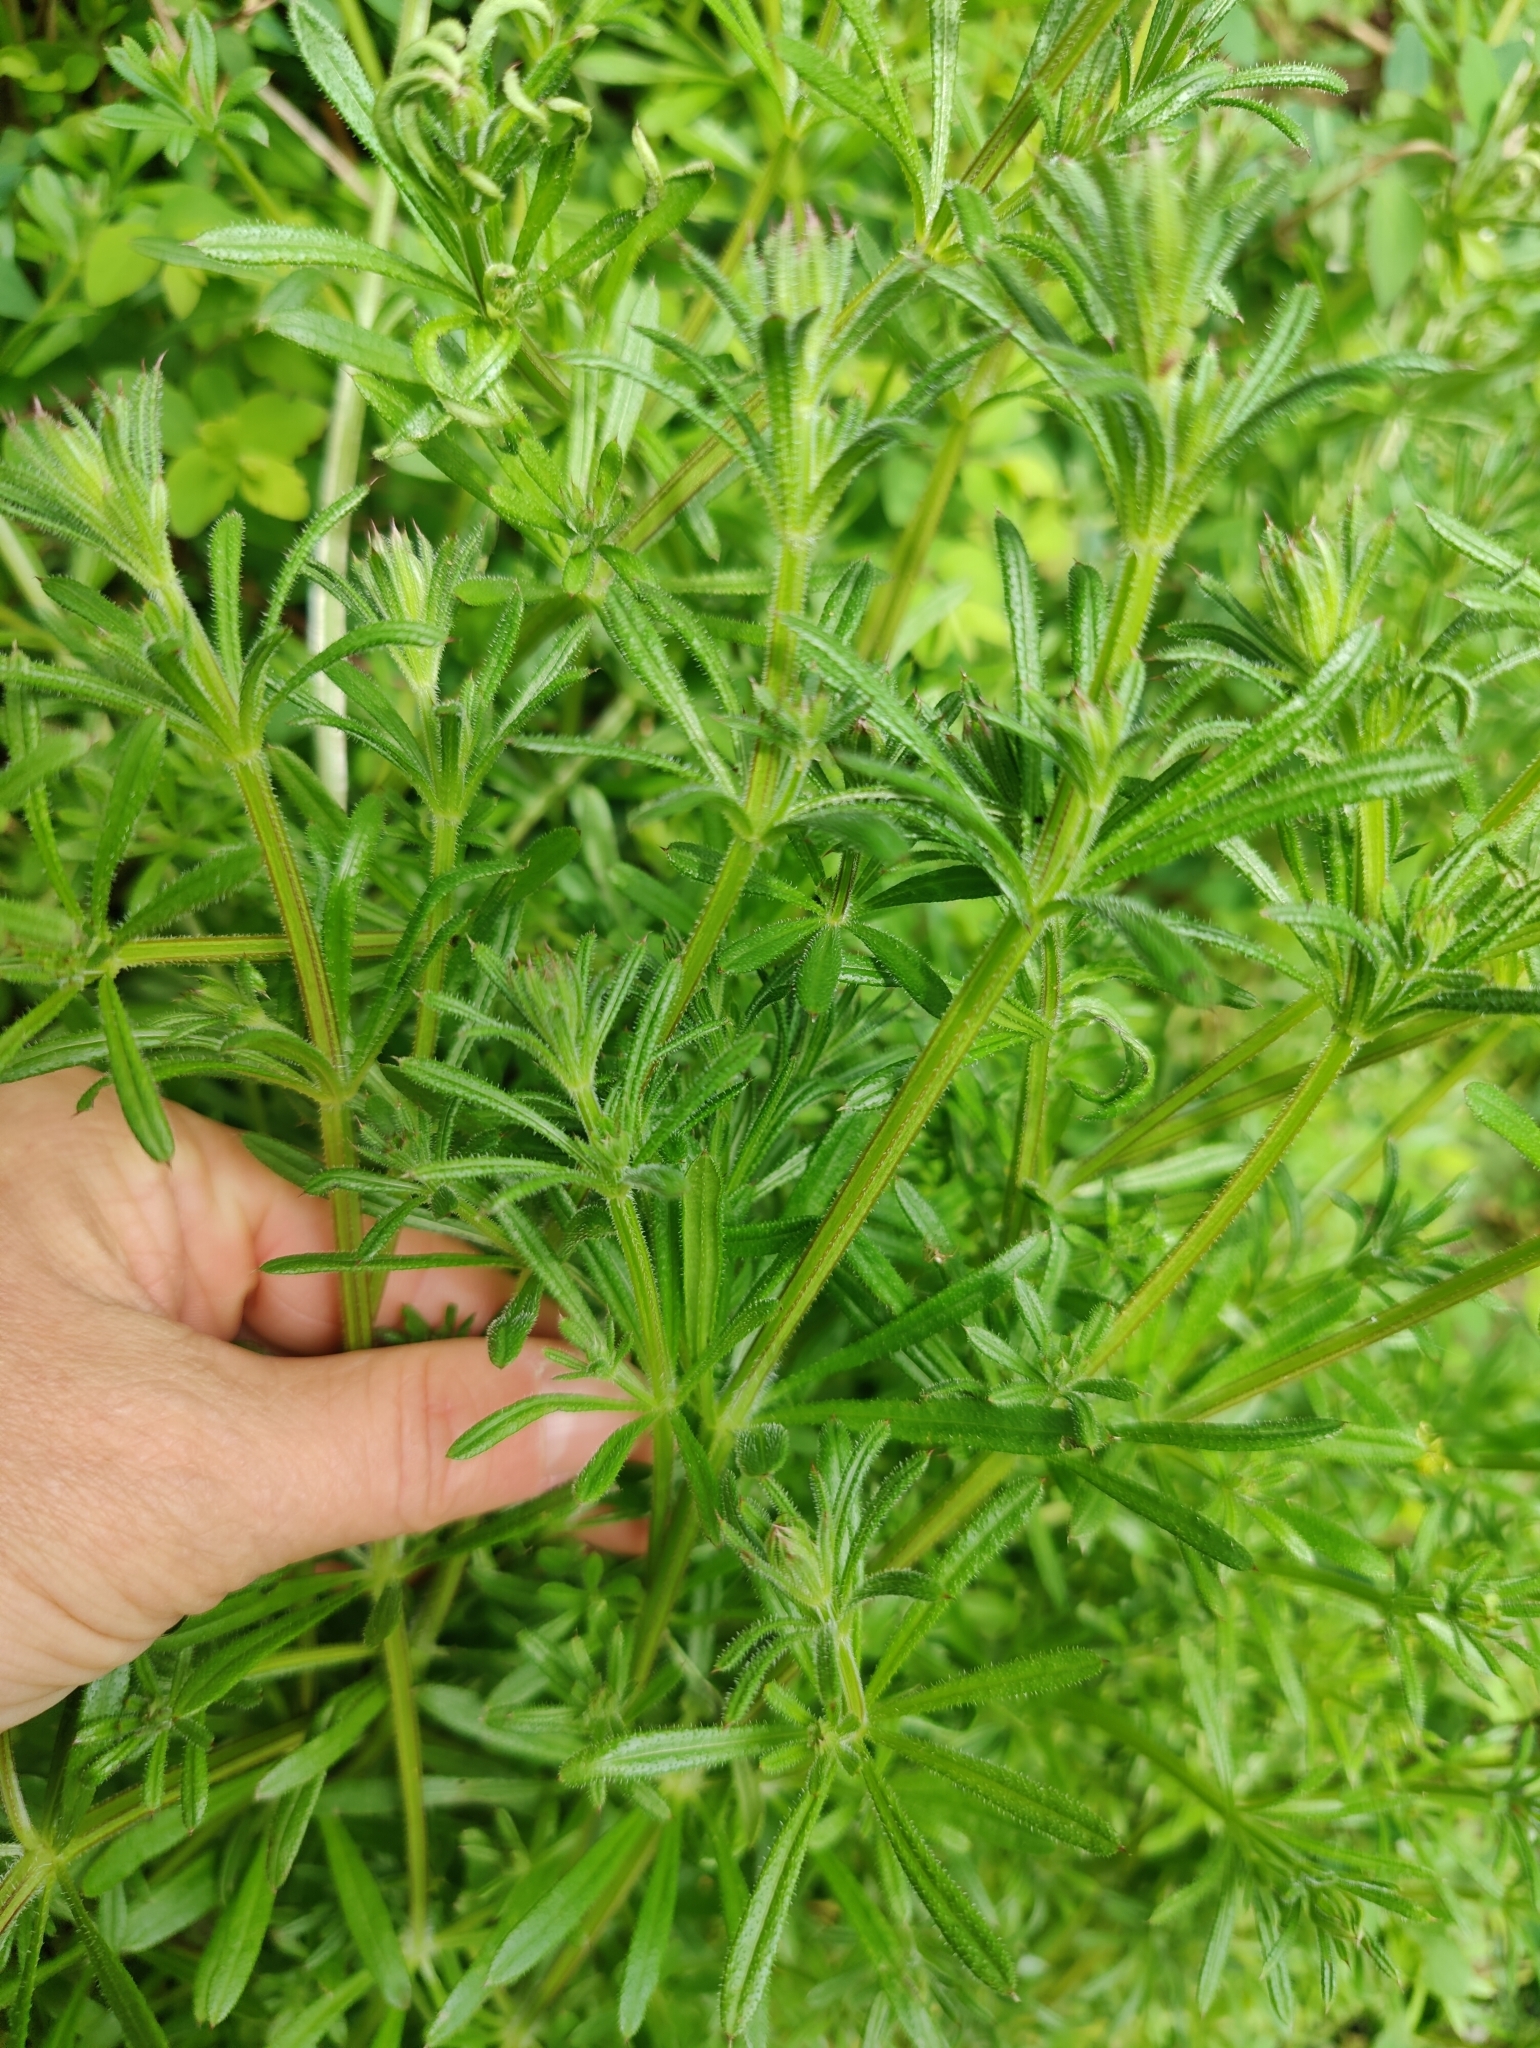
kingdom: Plantae
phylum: Tracheophyta
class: Magnoliopsida
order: Gentianales
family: Rubiaceae
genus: Galium
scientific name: Galium aparine
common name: Cleavers
